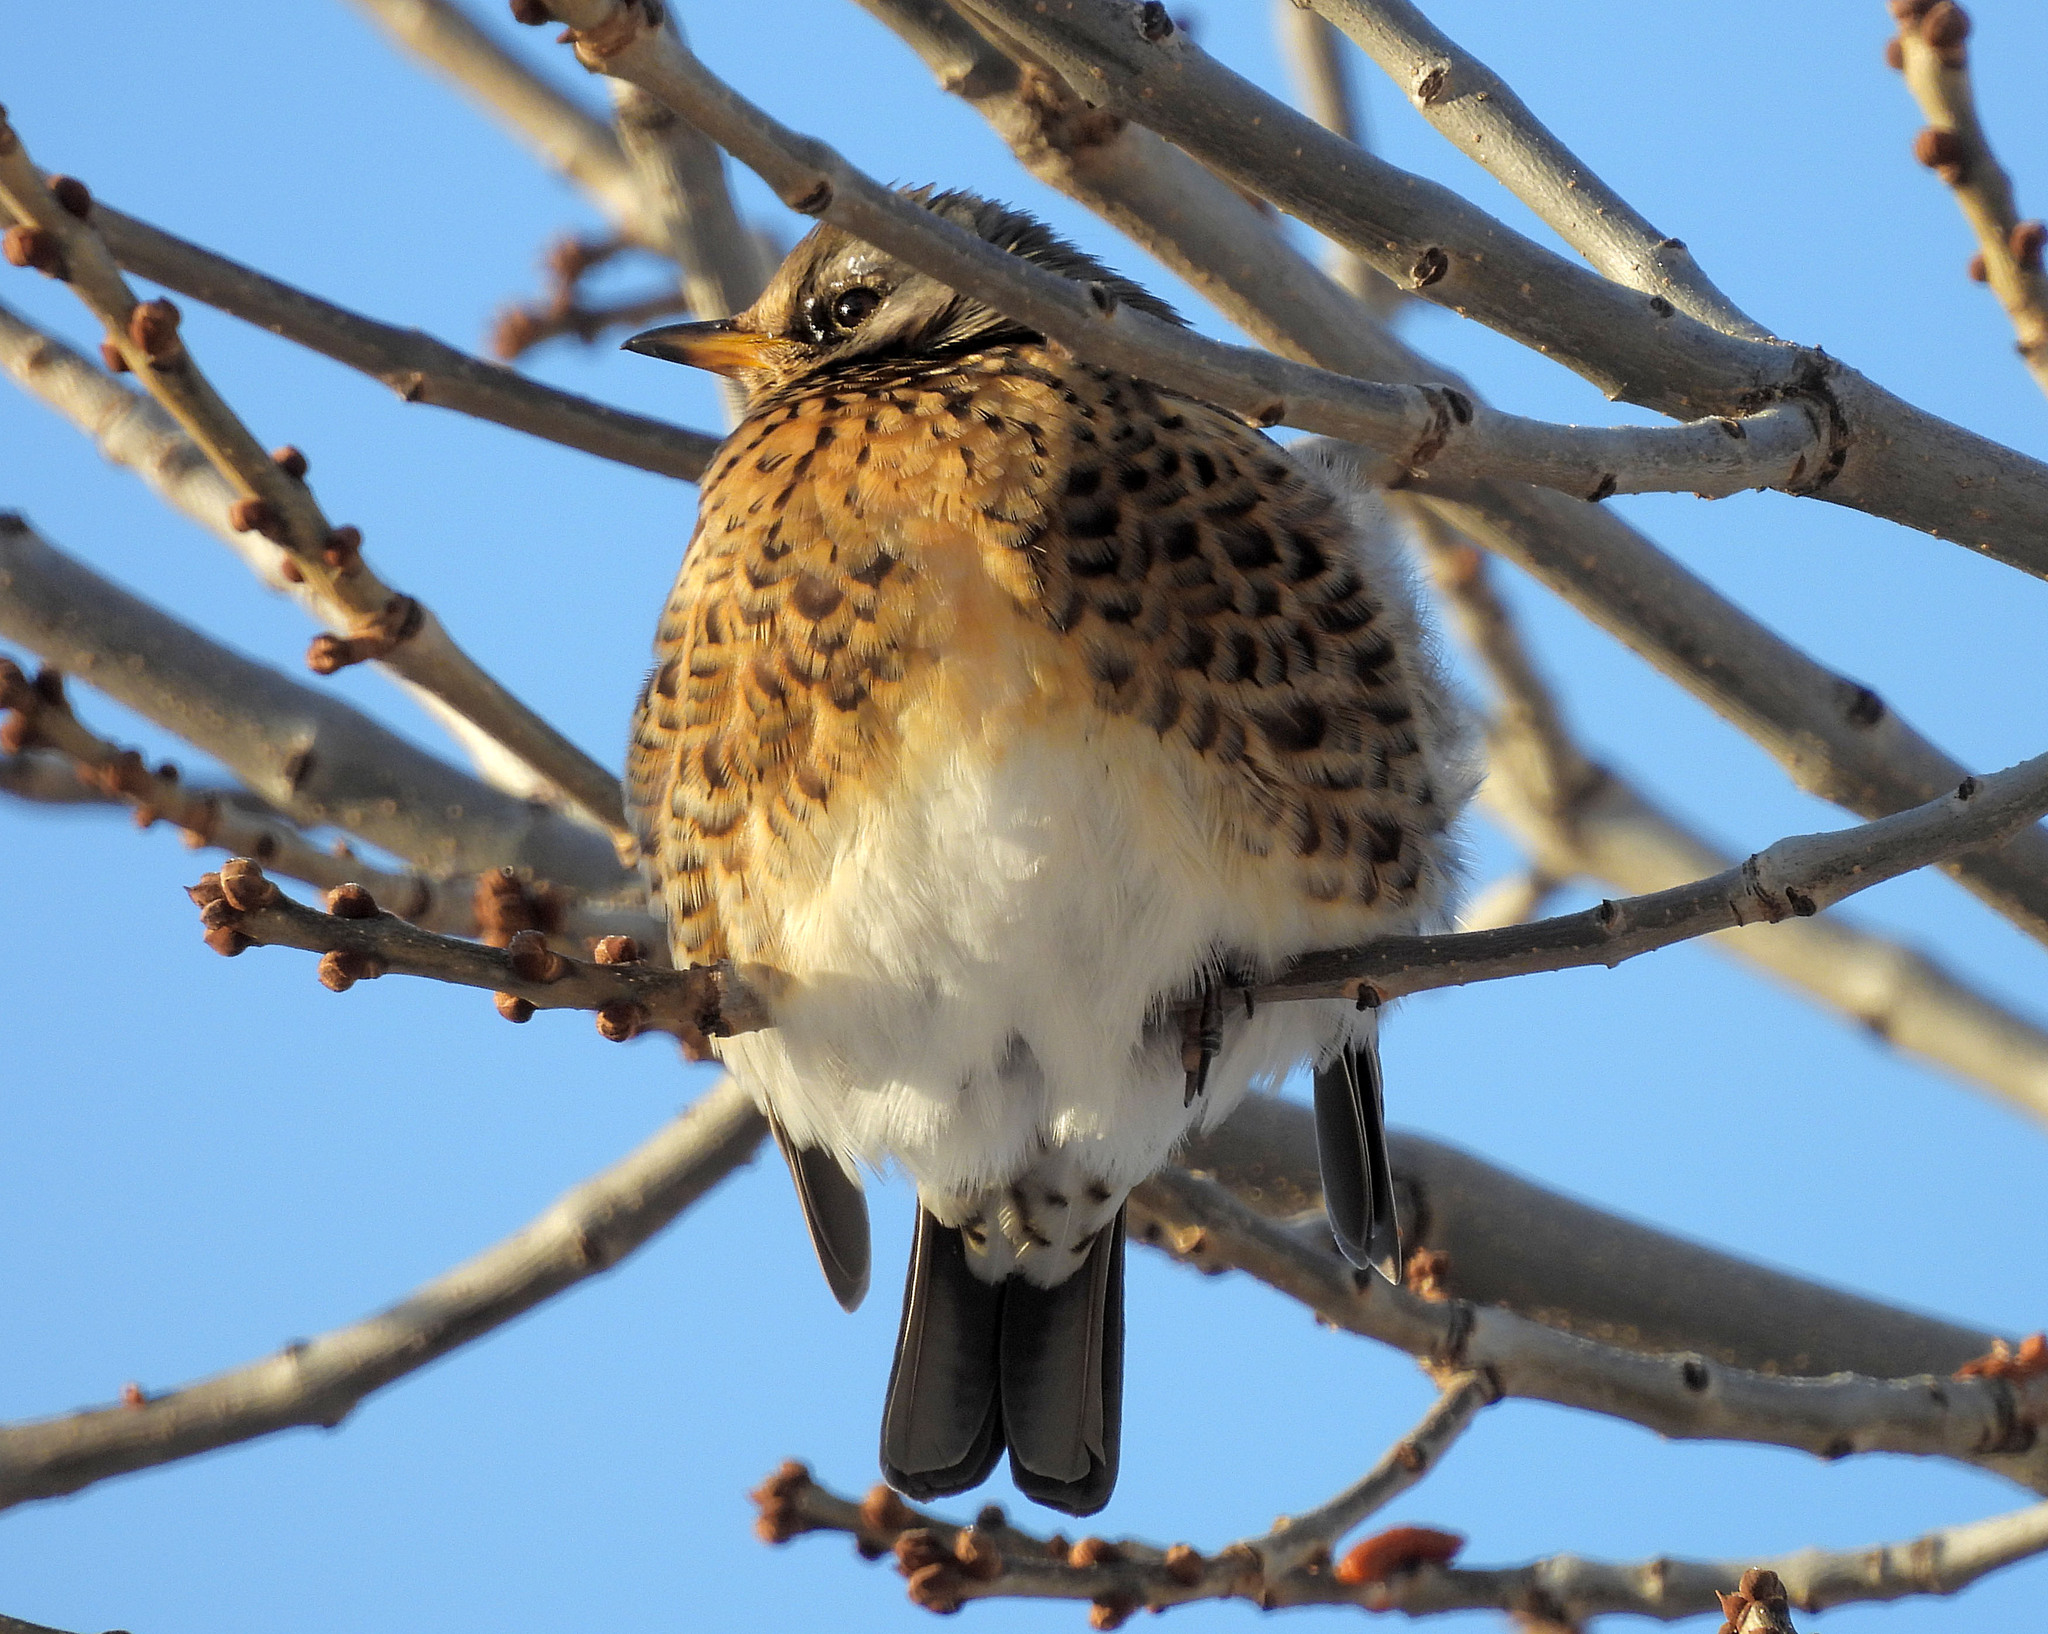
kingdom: Animalia
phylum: Chordata
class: Aves
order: Passeriformes
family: Turdidae
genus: Turdus
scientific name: Turdus pilaris
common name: Fieldfare
